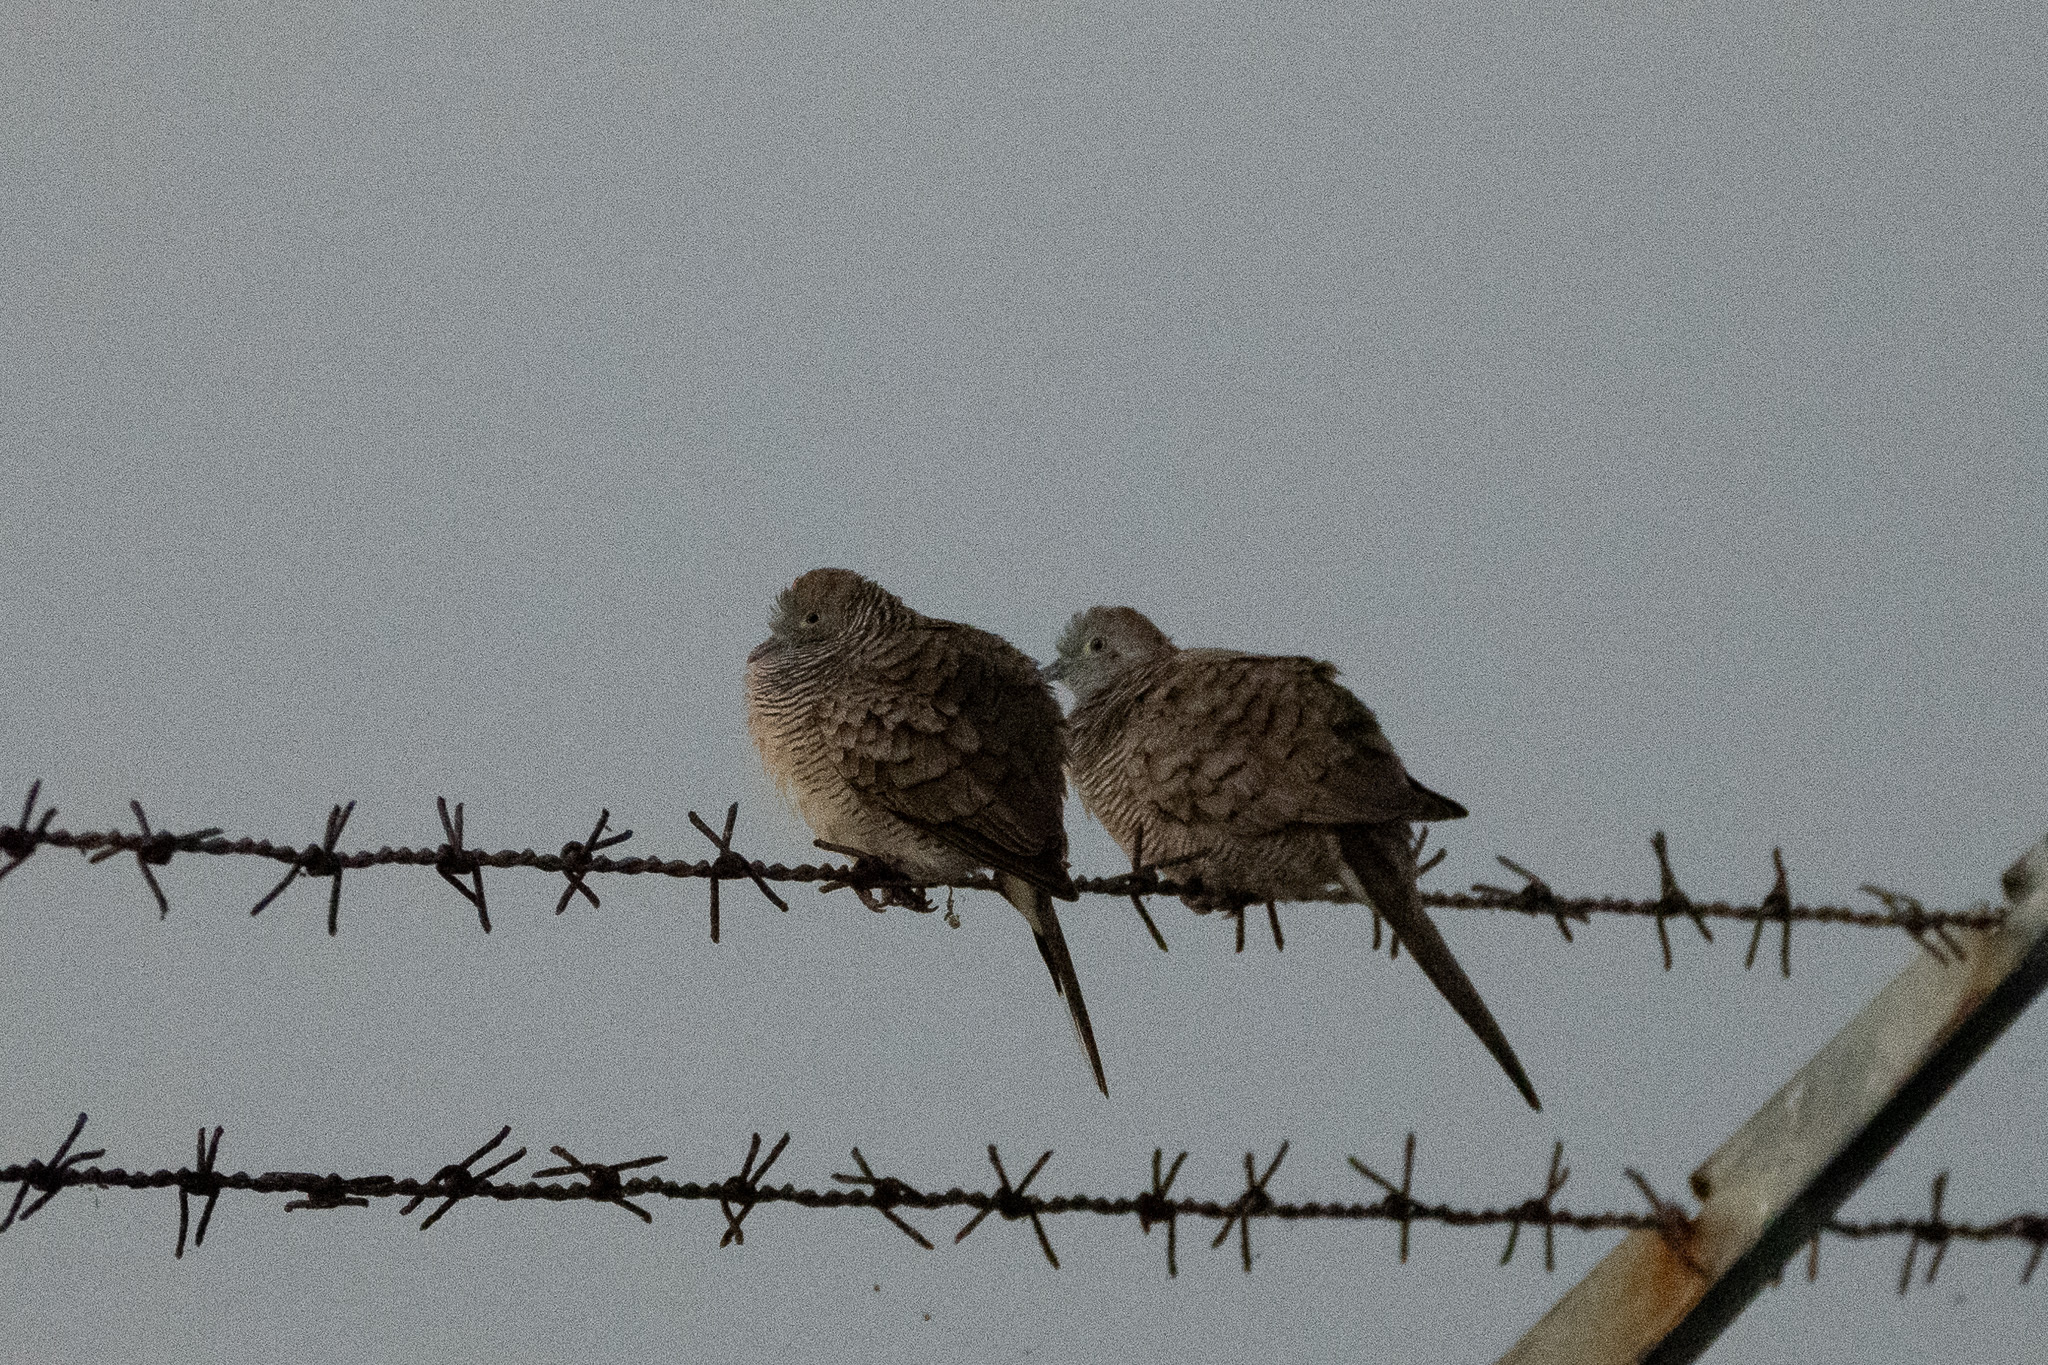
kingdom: Animalia
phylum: Chordata
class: Aves
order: Columbiformes
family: Columbidae
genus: Geopelia
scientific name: Geopelia striata
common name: Zebra dove
